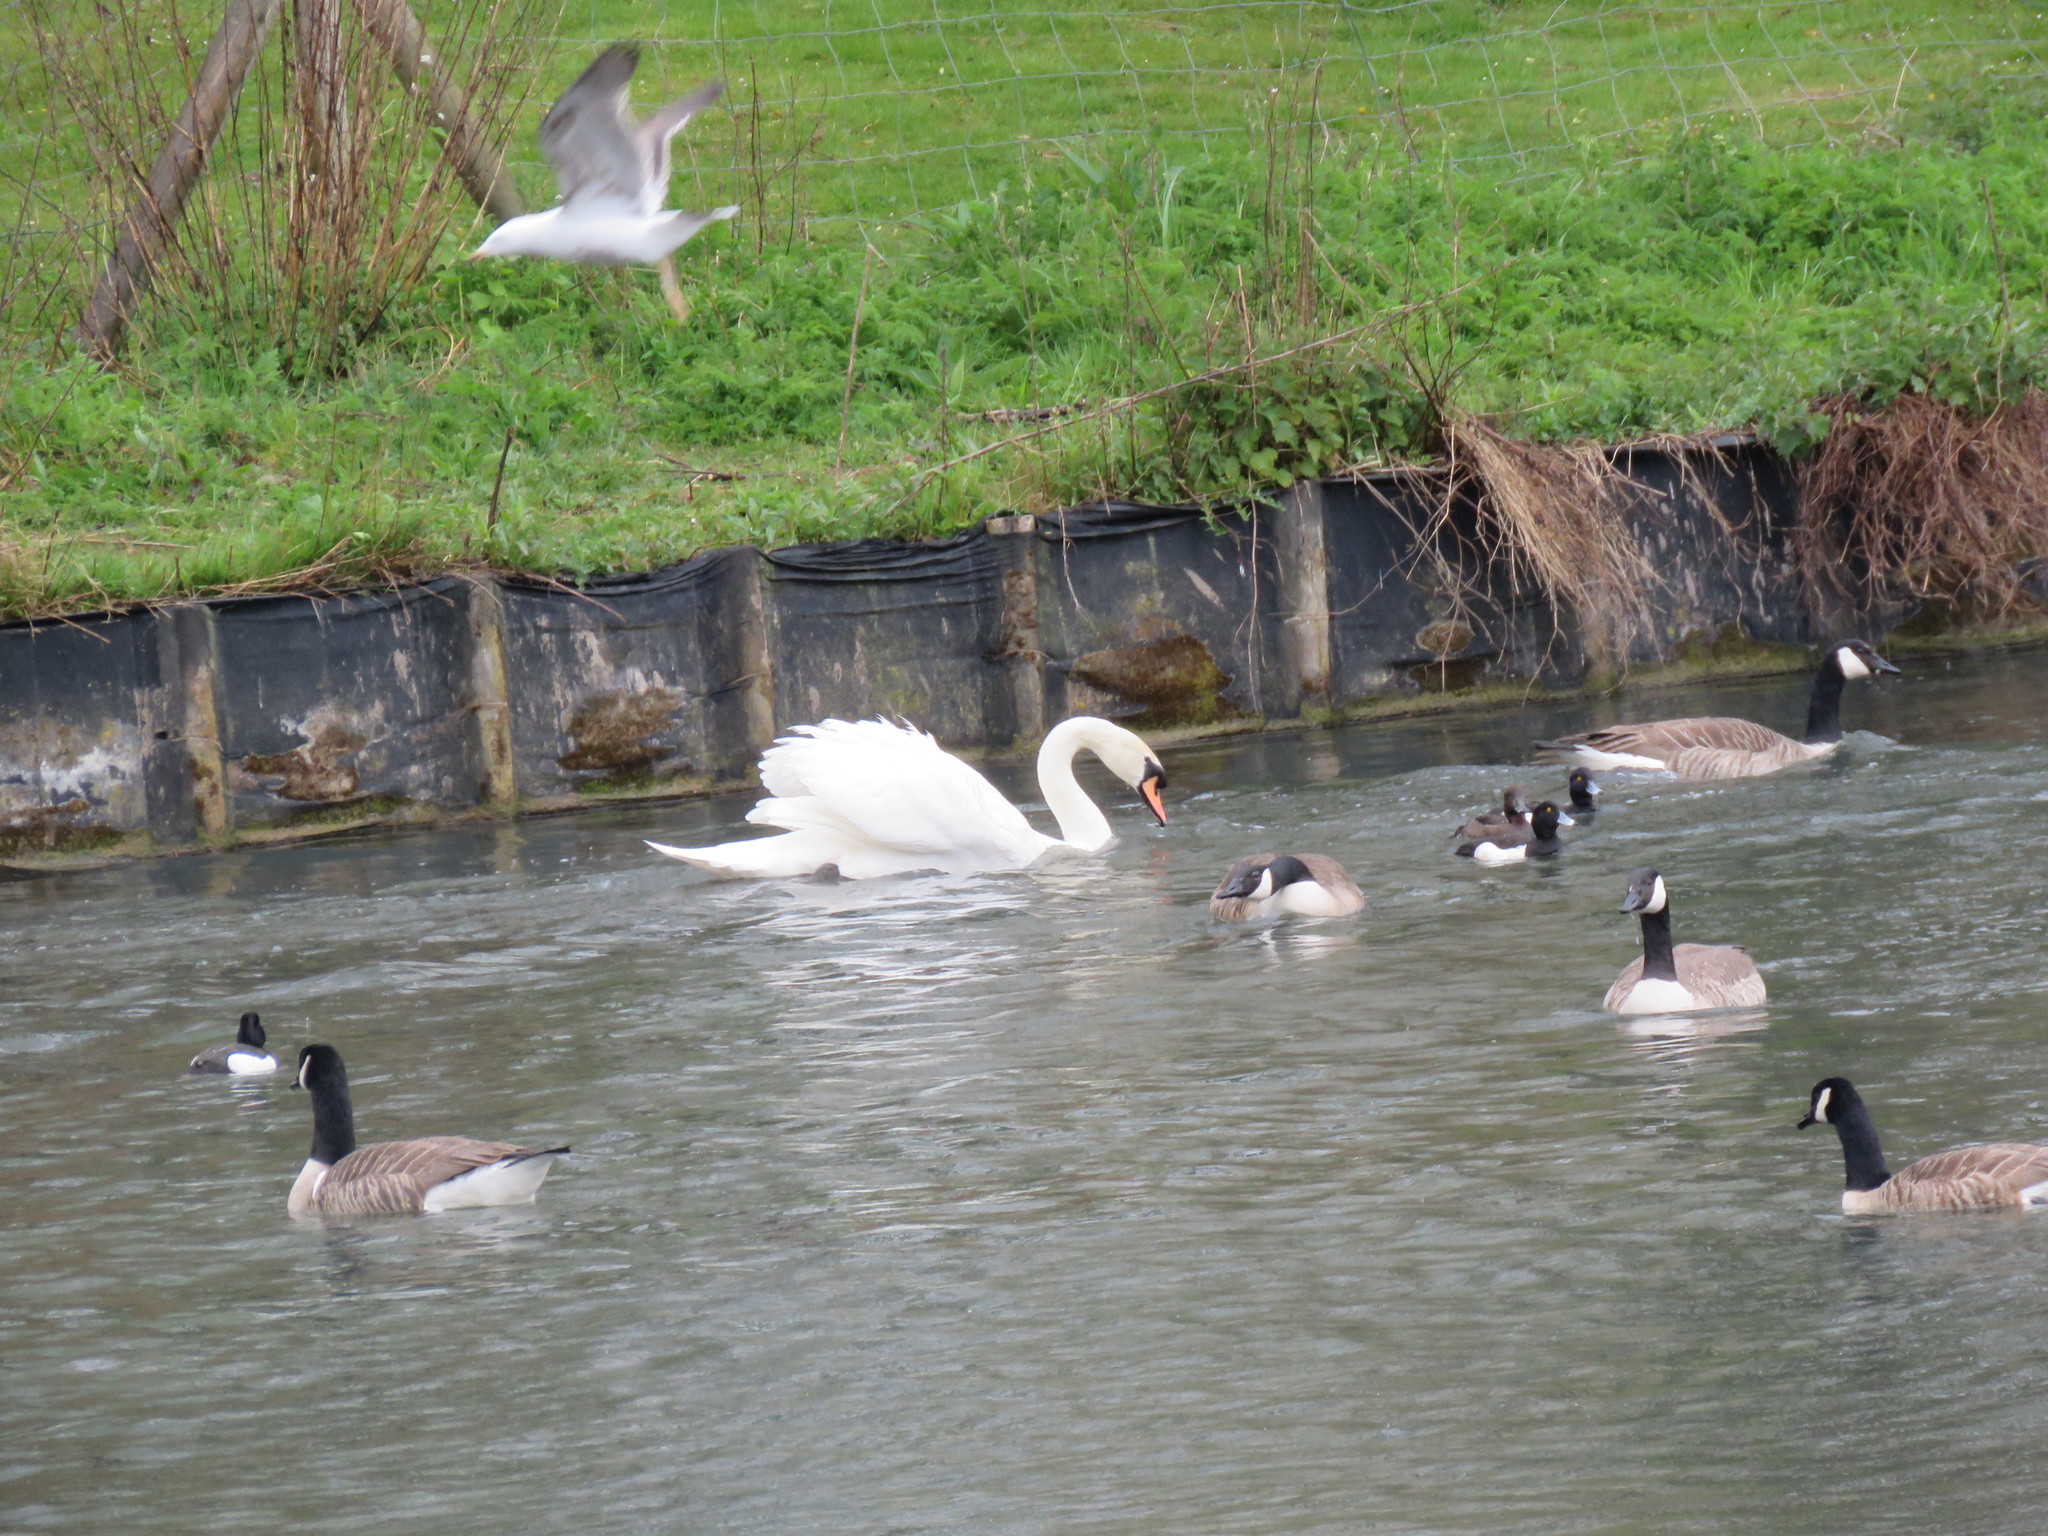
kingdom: Animalia
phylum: Chordata
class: Aves
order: Anseriformes
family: Anatidae
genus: Branta
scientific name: Branta canadensis
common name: Canada goose
